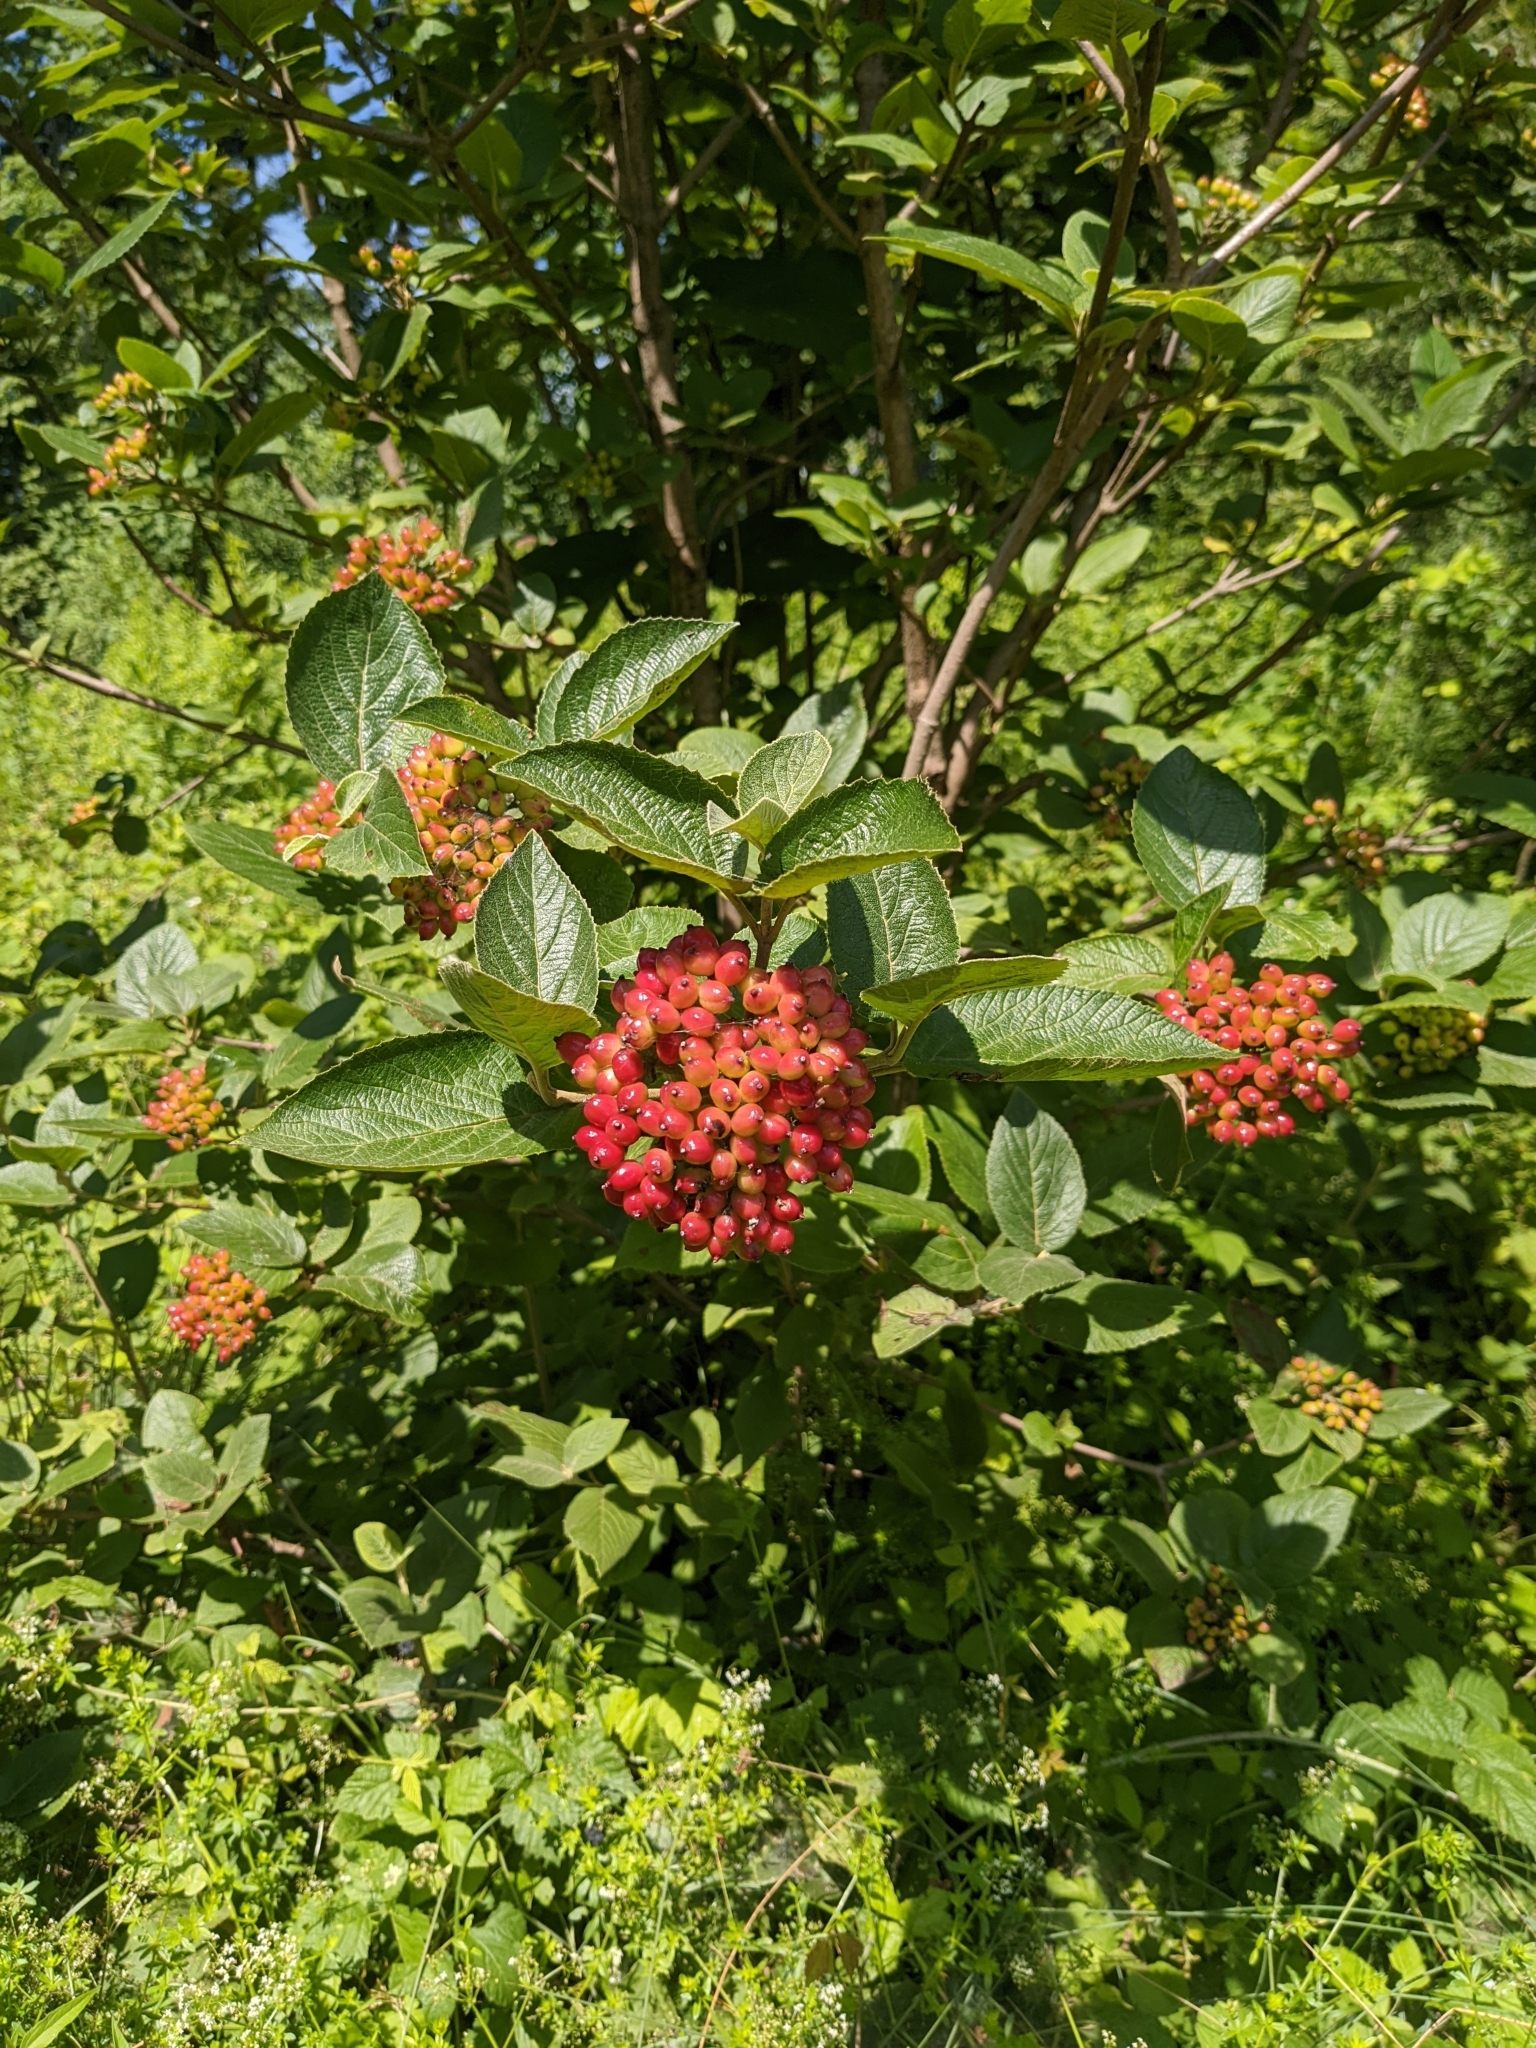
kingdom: Plantae
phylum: Tracheophyta
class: Magnoliopsida
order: Dipsacales
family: Viburnaceae
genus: Viburnum
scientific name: Viburnum lantana
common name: Wayfaring tree
